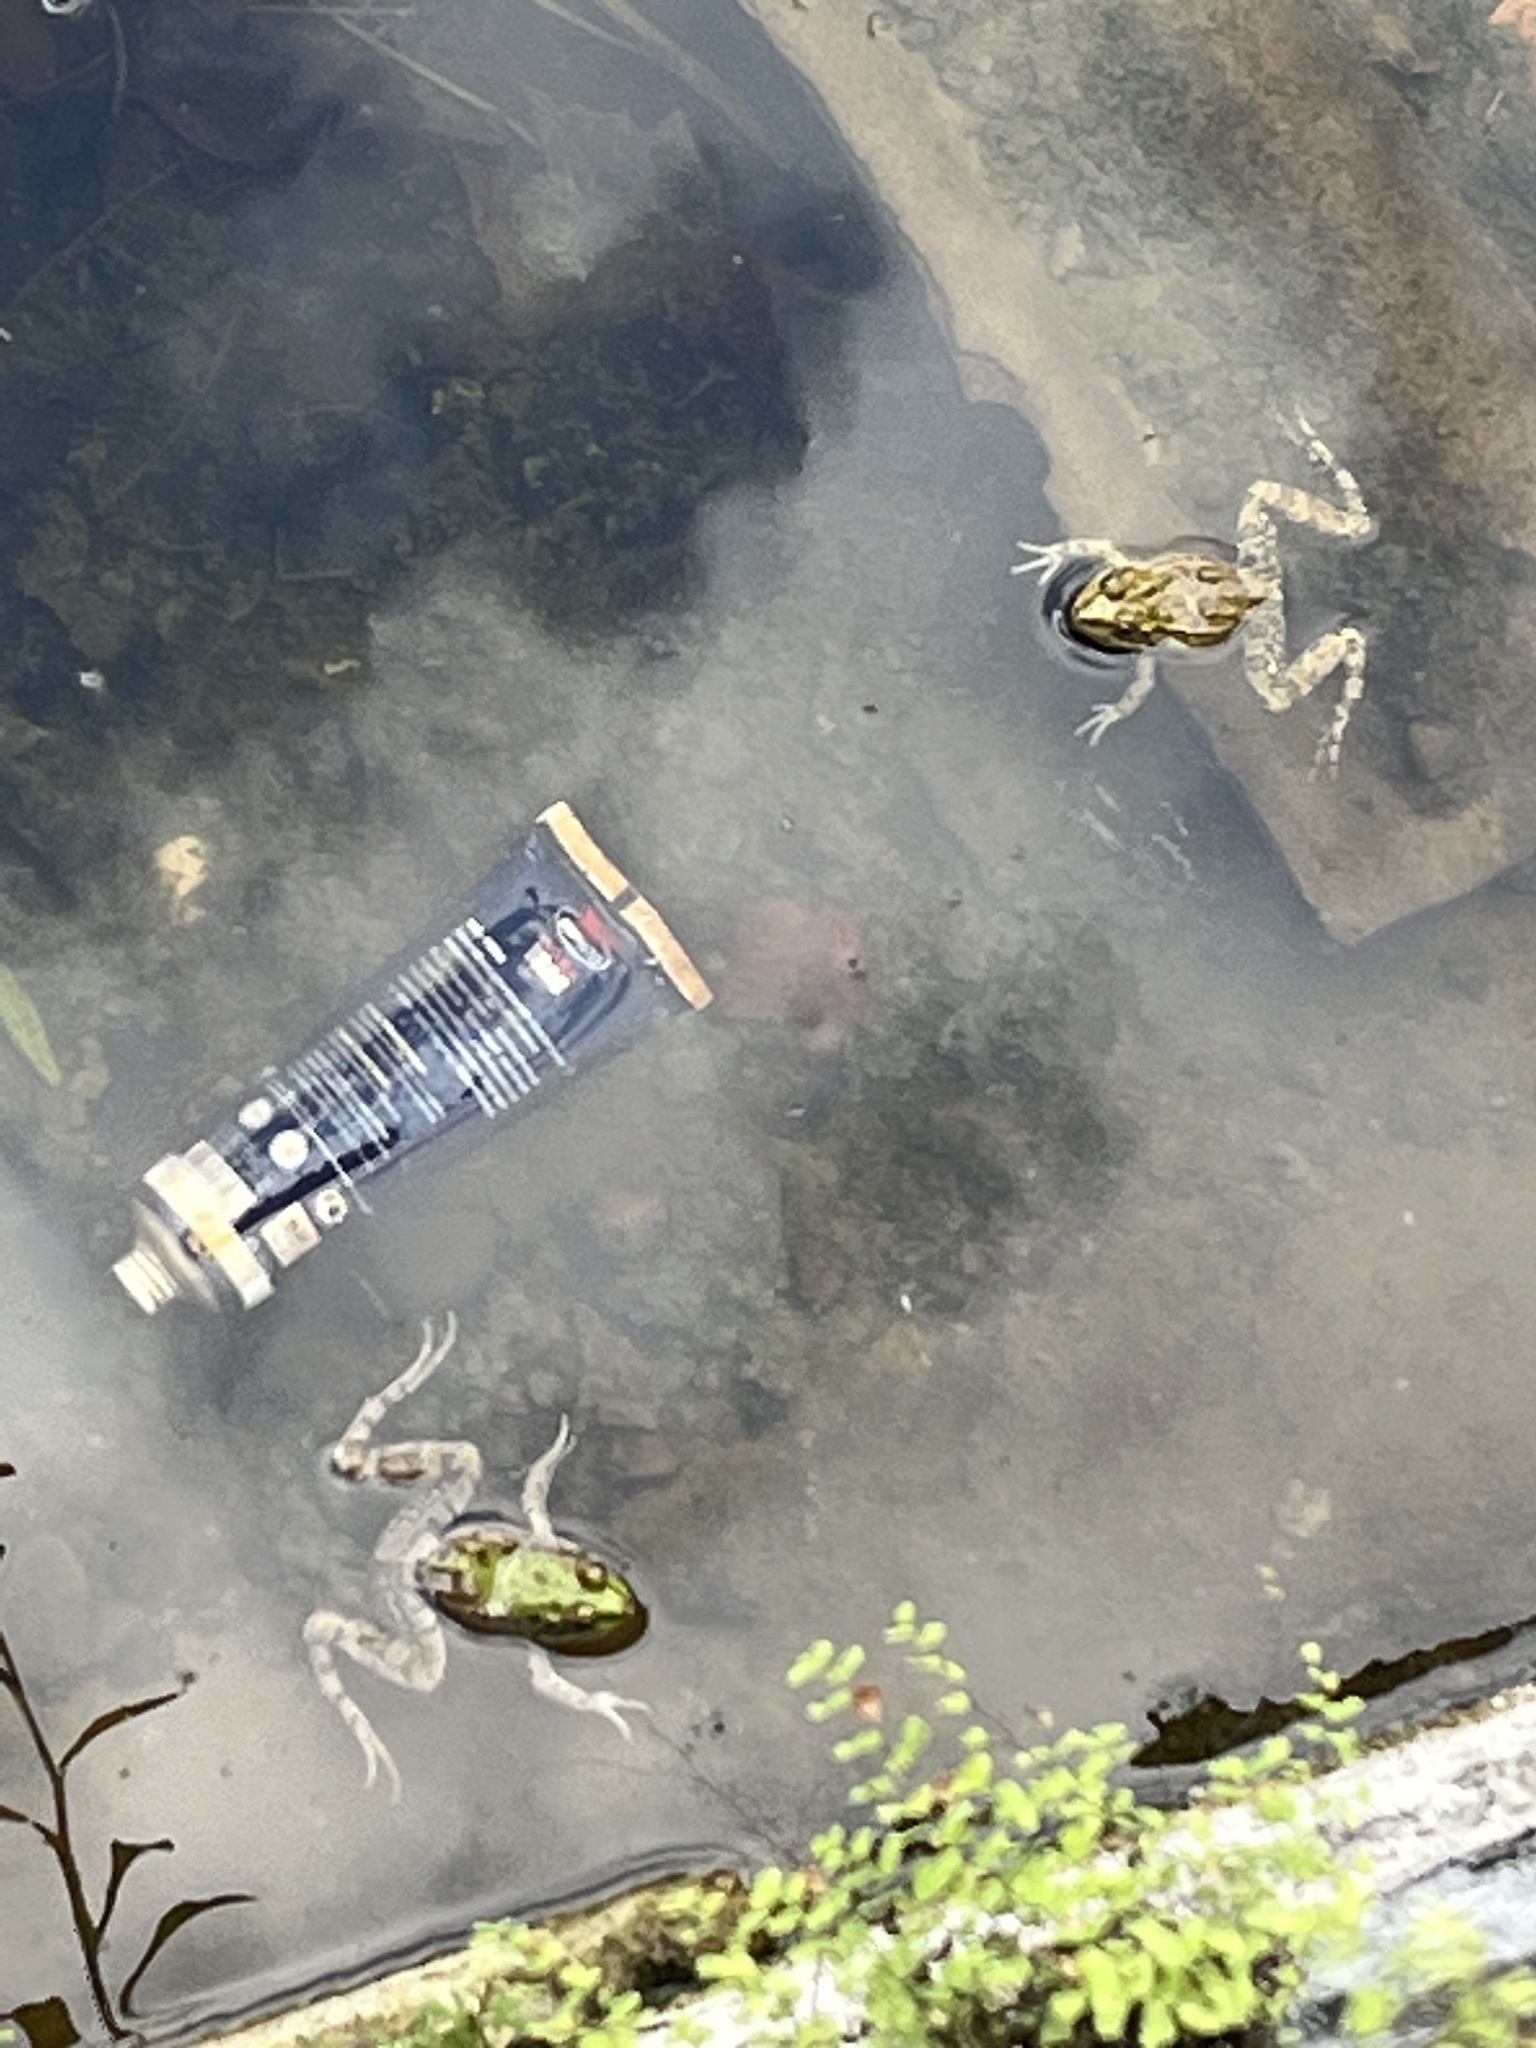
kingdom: Animalia
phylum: Chordata
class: Amphibia
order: Anura
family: Ranidae
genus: Pelophylax
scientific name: Pelophylax ridibundus
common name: Marsh frog
